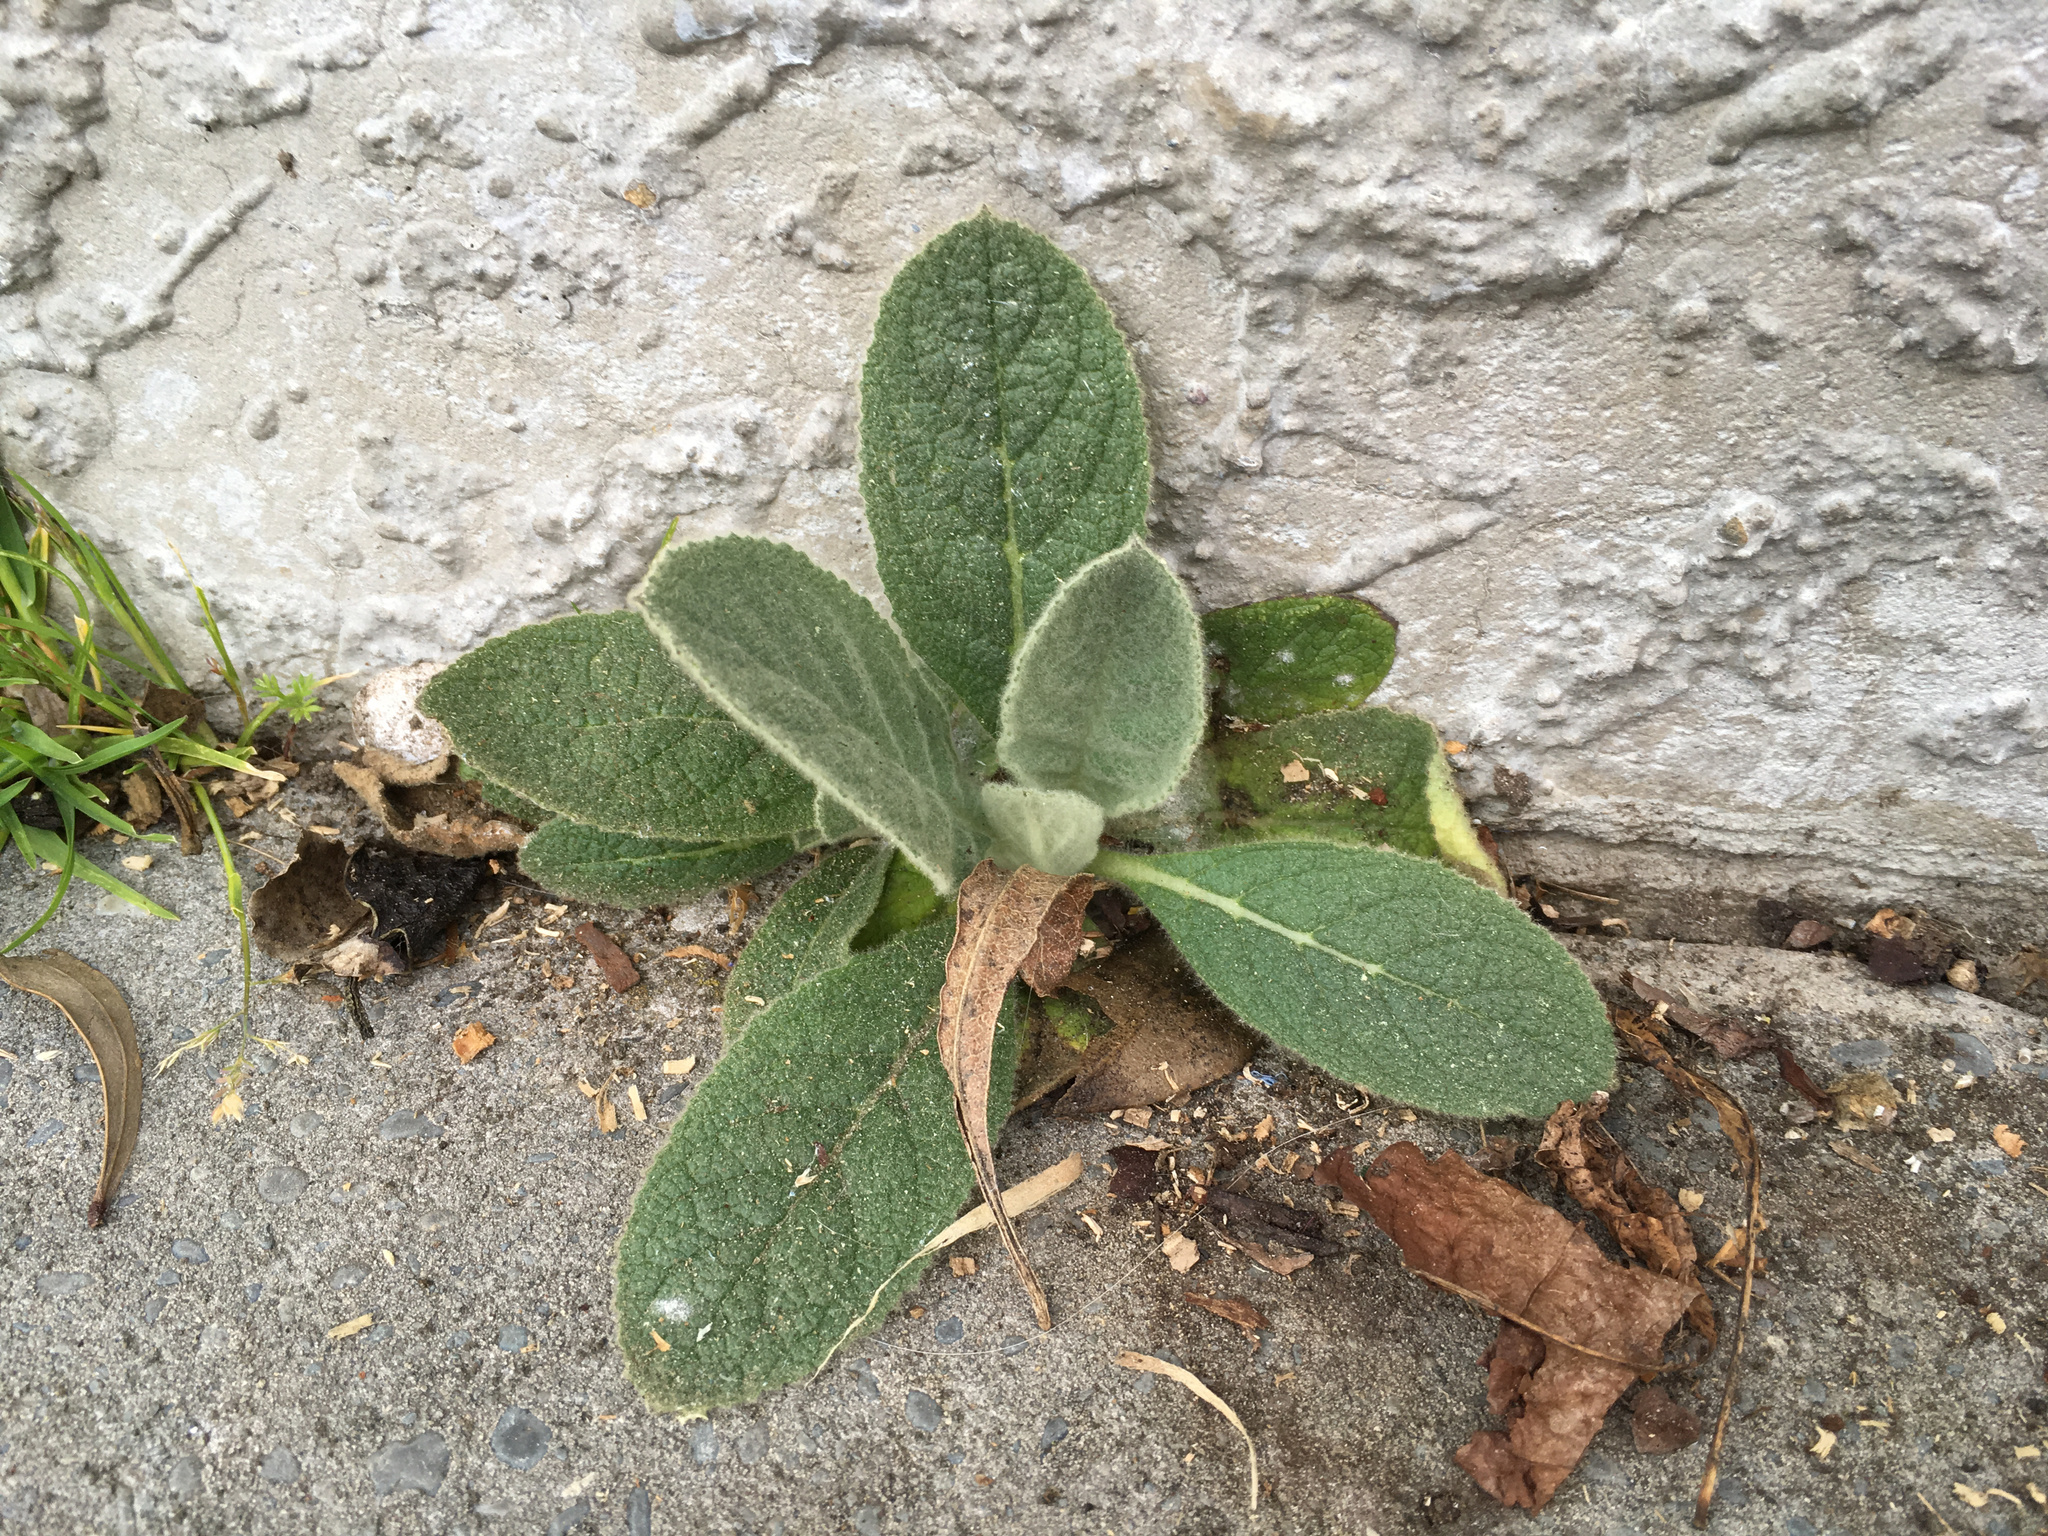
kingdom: Plantae
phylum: Tracheophyta
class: Magnoliopsida
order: Lamiales
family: Scrophulariaceae
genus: Verbascum
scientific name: Verbascum thapsus
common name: Common mullein
